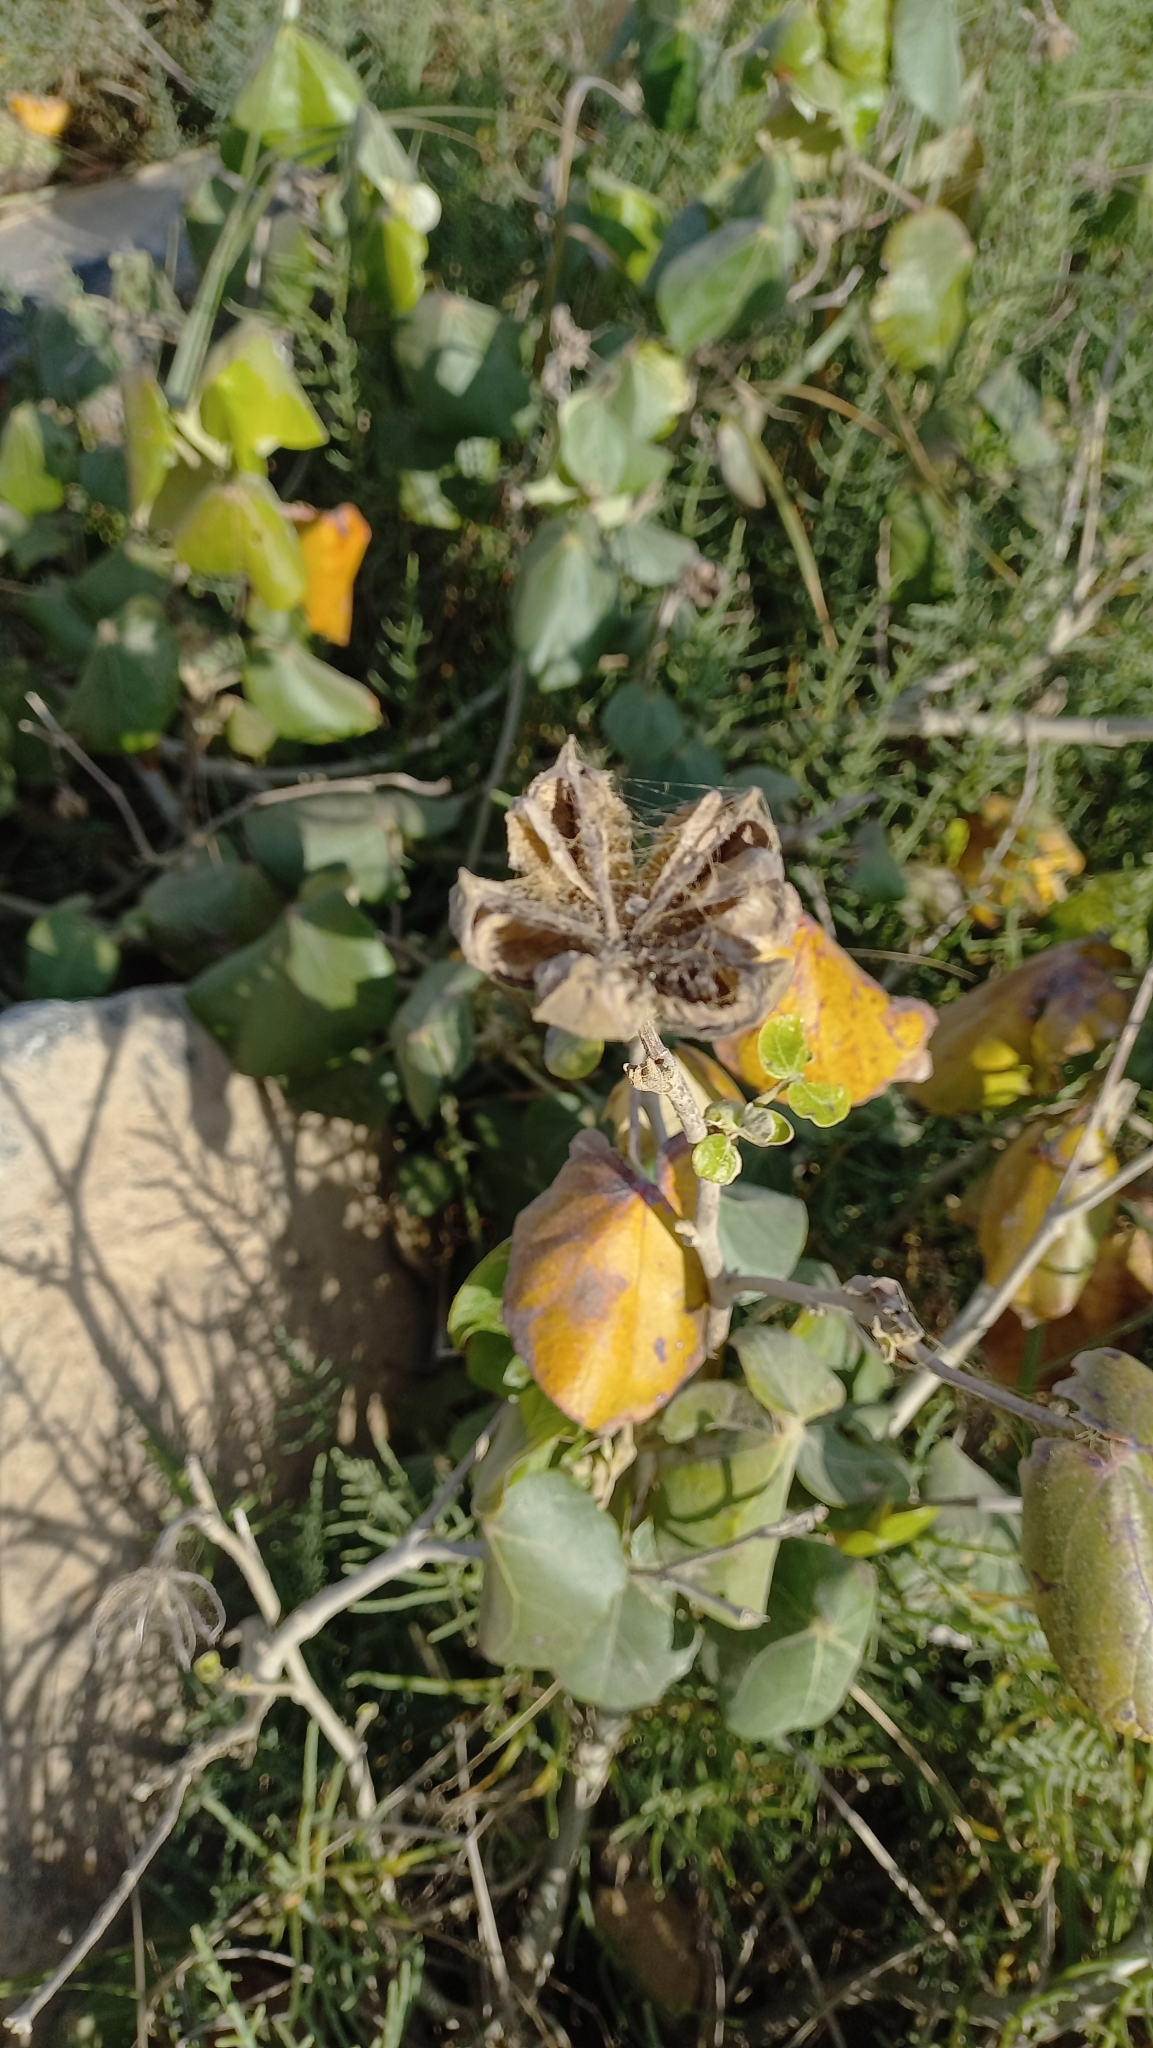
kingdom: Plantae
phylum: Tracheophyta
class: Magnoliopsida
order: Malvales
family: Malvaceae
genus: Talipariti
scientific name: Talipariti pernambucense
